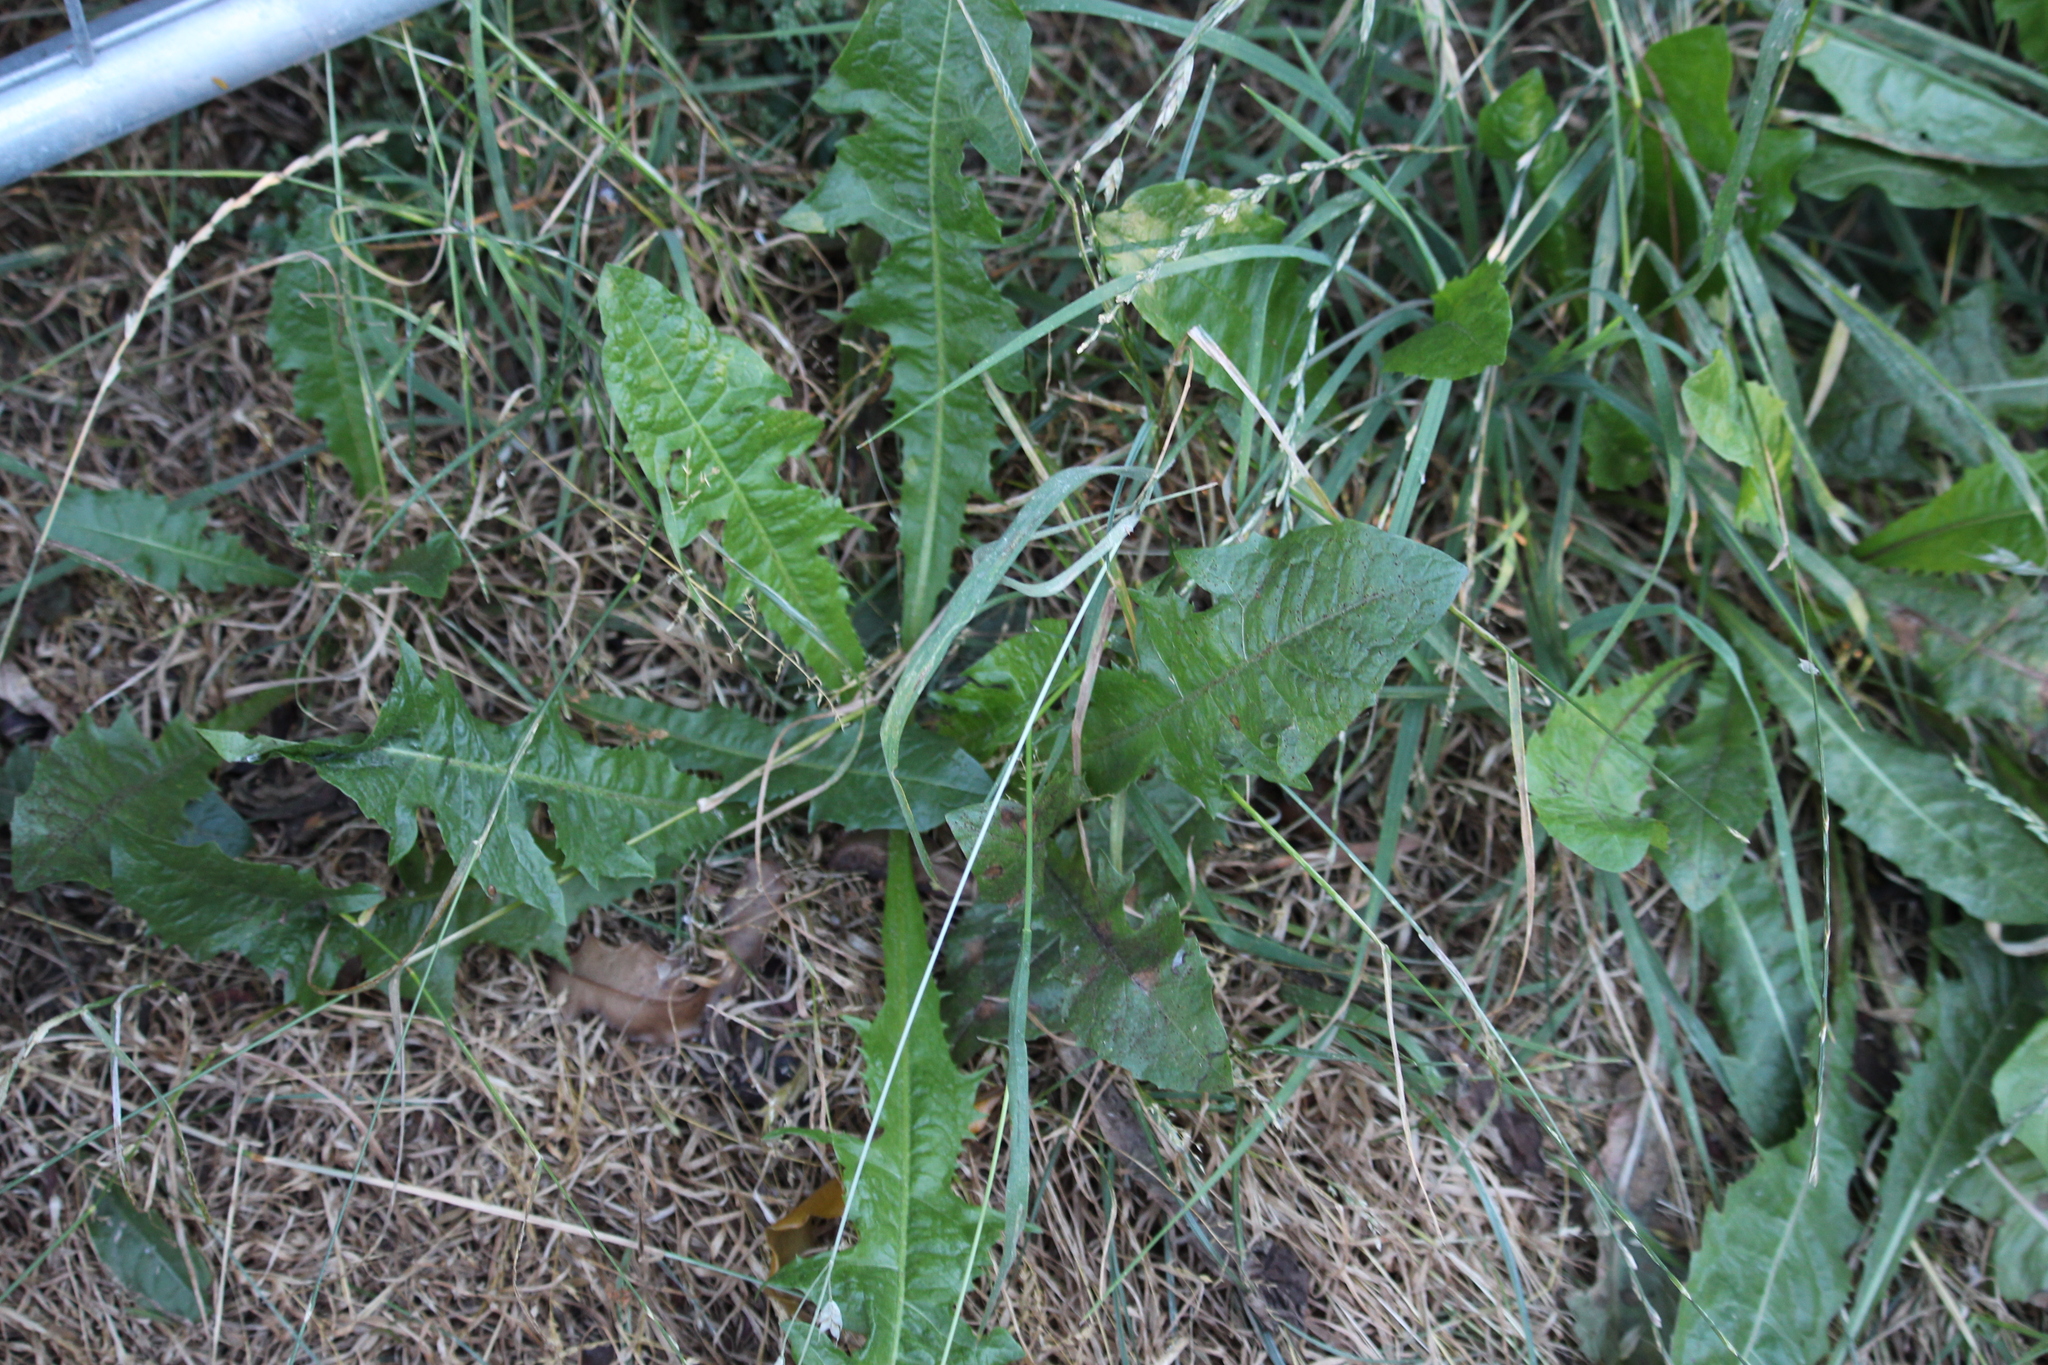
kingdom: Plantae
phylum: Tracheophyta
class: Magnoliopsida
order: Asterales
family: Asteraceae
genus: Taraxacum
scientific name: Taraxacum officinale
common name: Common dandelion
